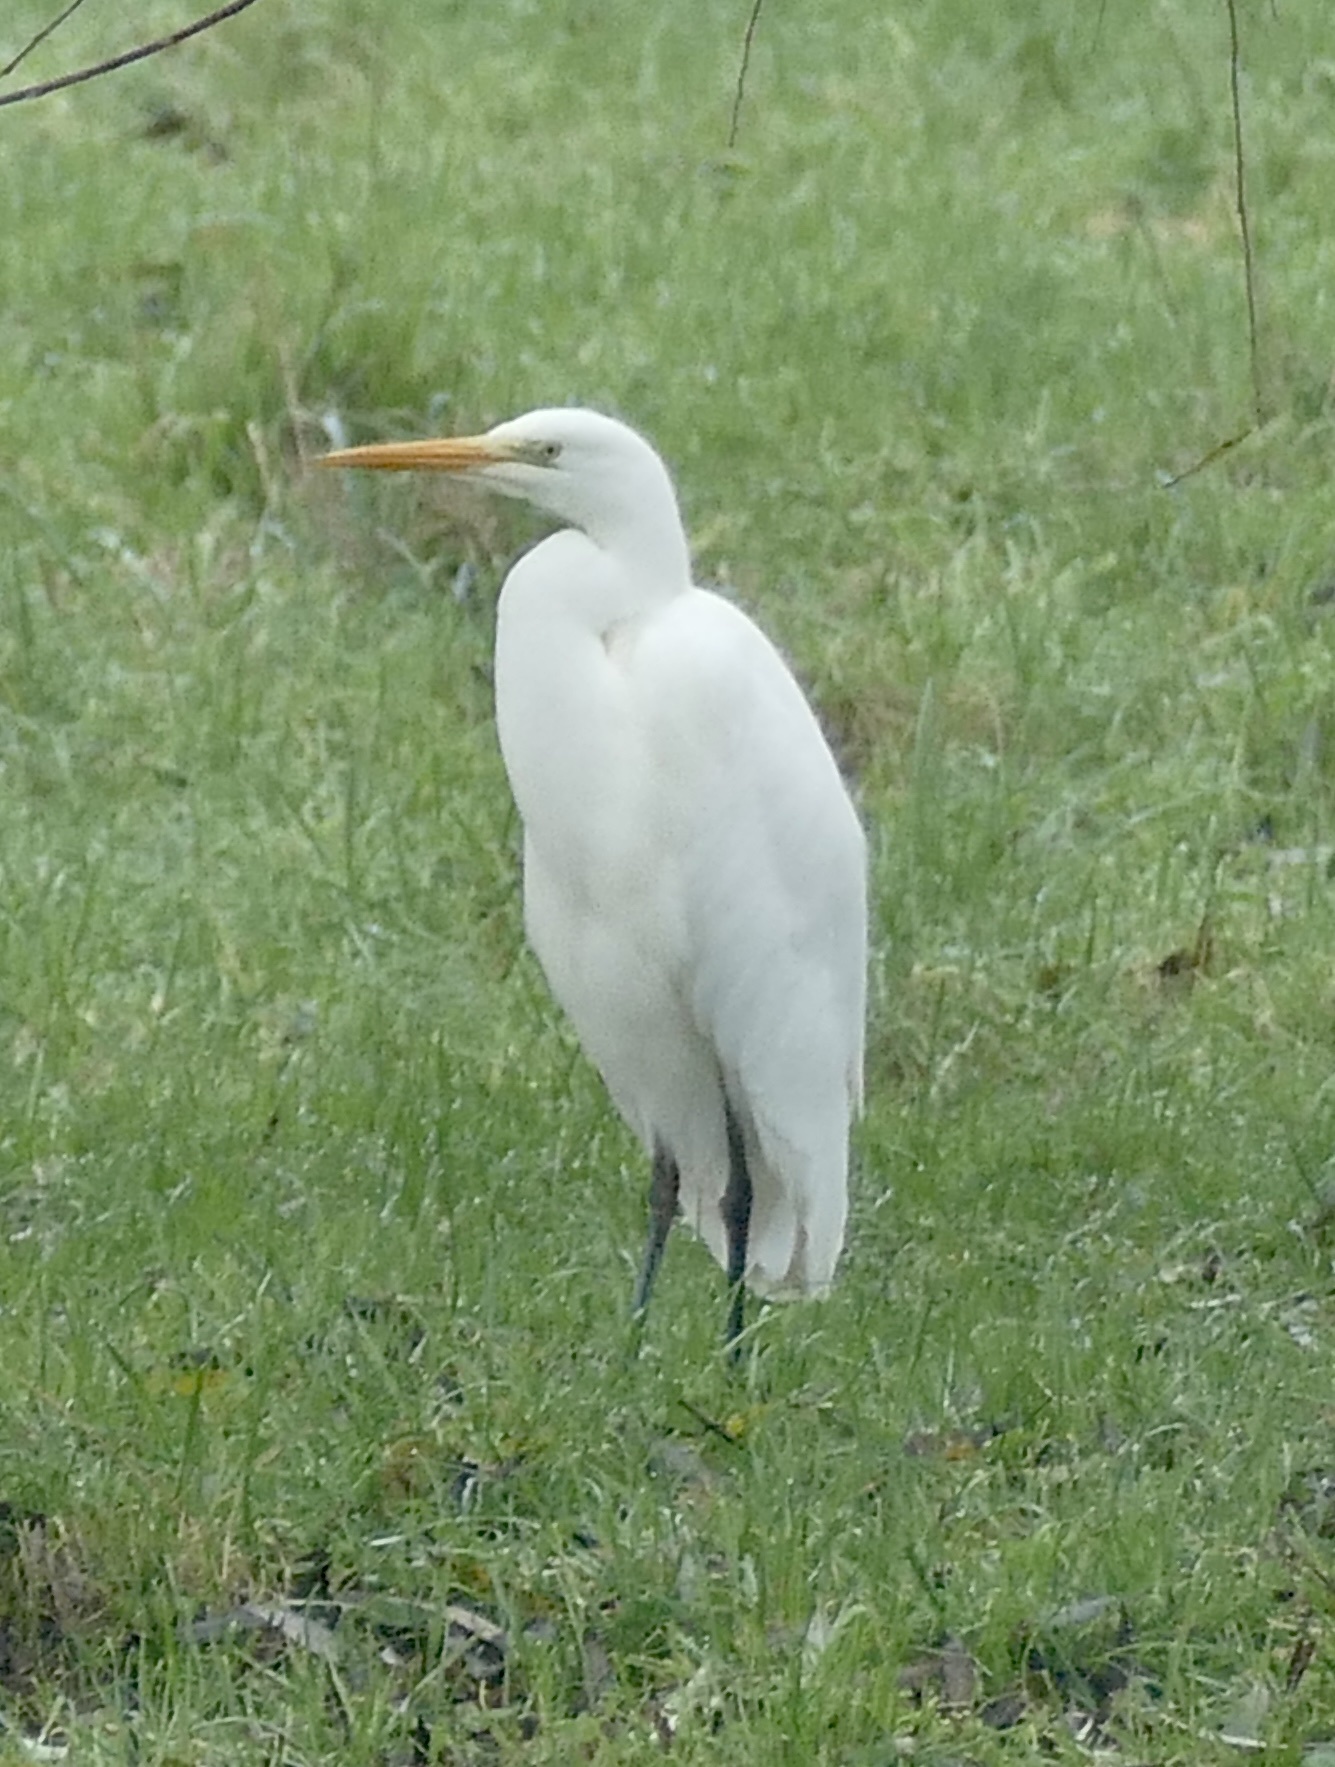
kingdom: Animalia
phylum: Chordata
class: Aves
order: Pelecaniformes
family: Ardeidae
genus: Ardea
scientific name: Ardea alba
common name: Great egret
